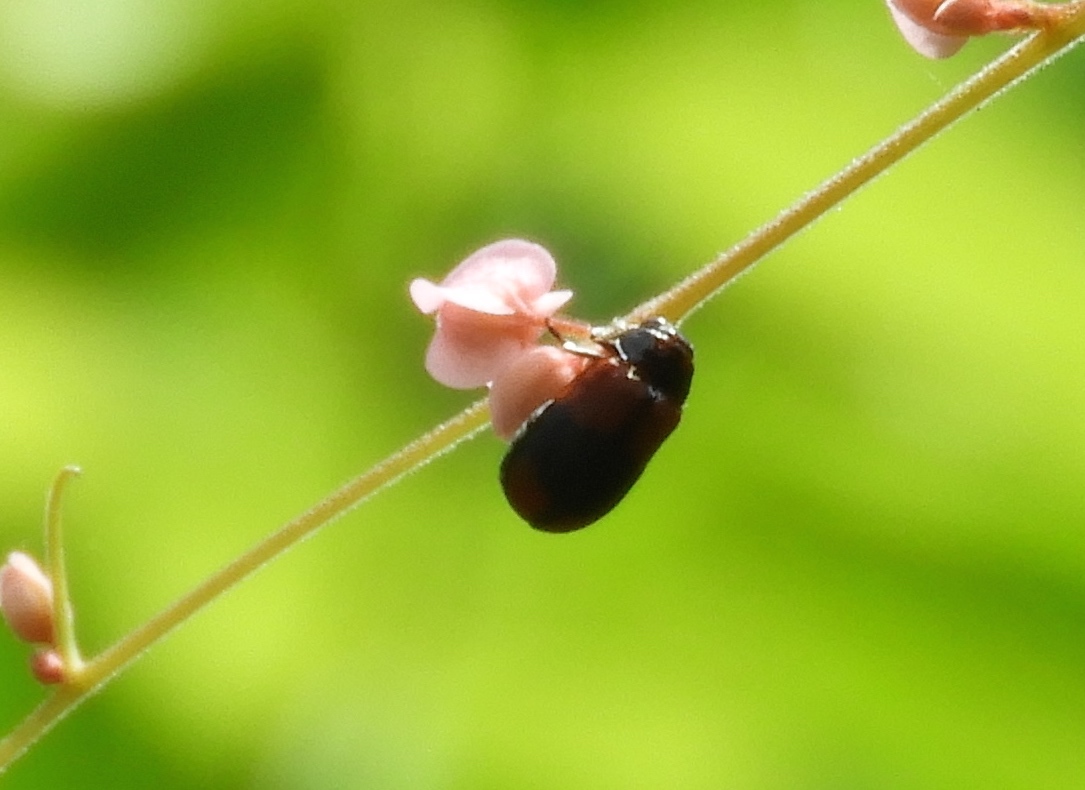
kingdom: Animalia
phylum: Arthropoda
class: Insecta
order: Coleoptera
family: Chrysomelidae
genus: Anomoea
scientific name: Anomoea rufifrons
